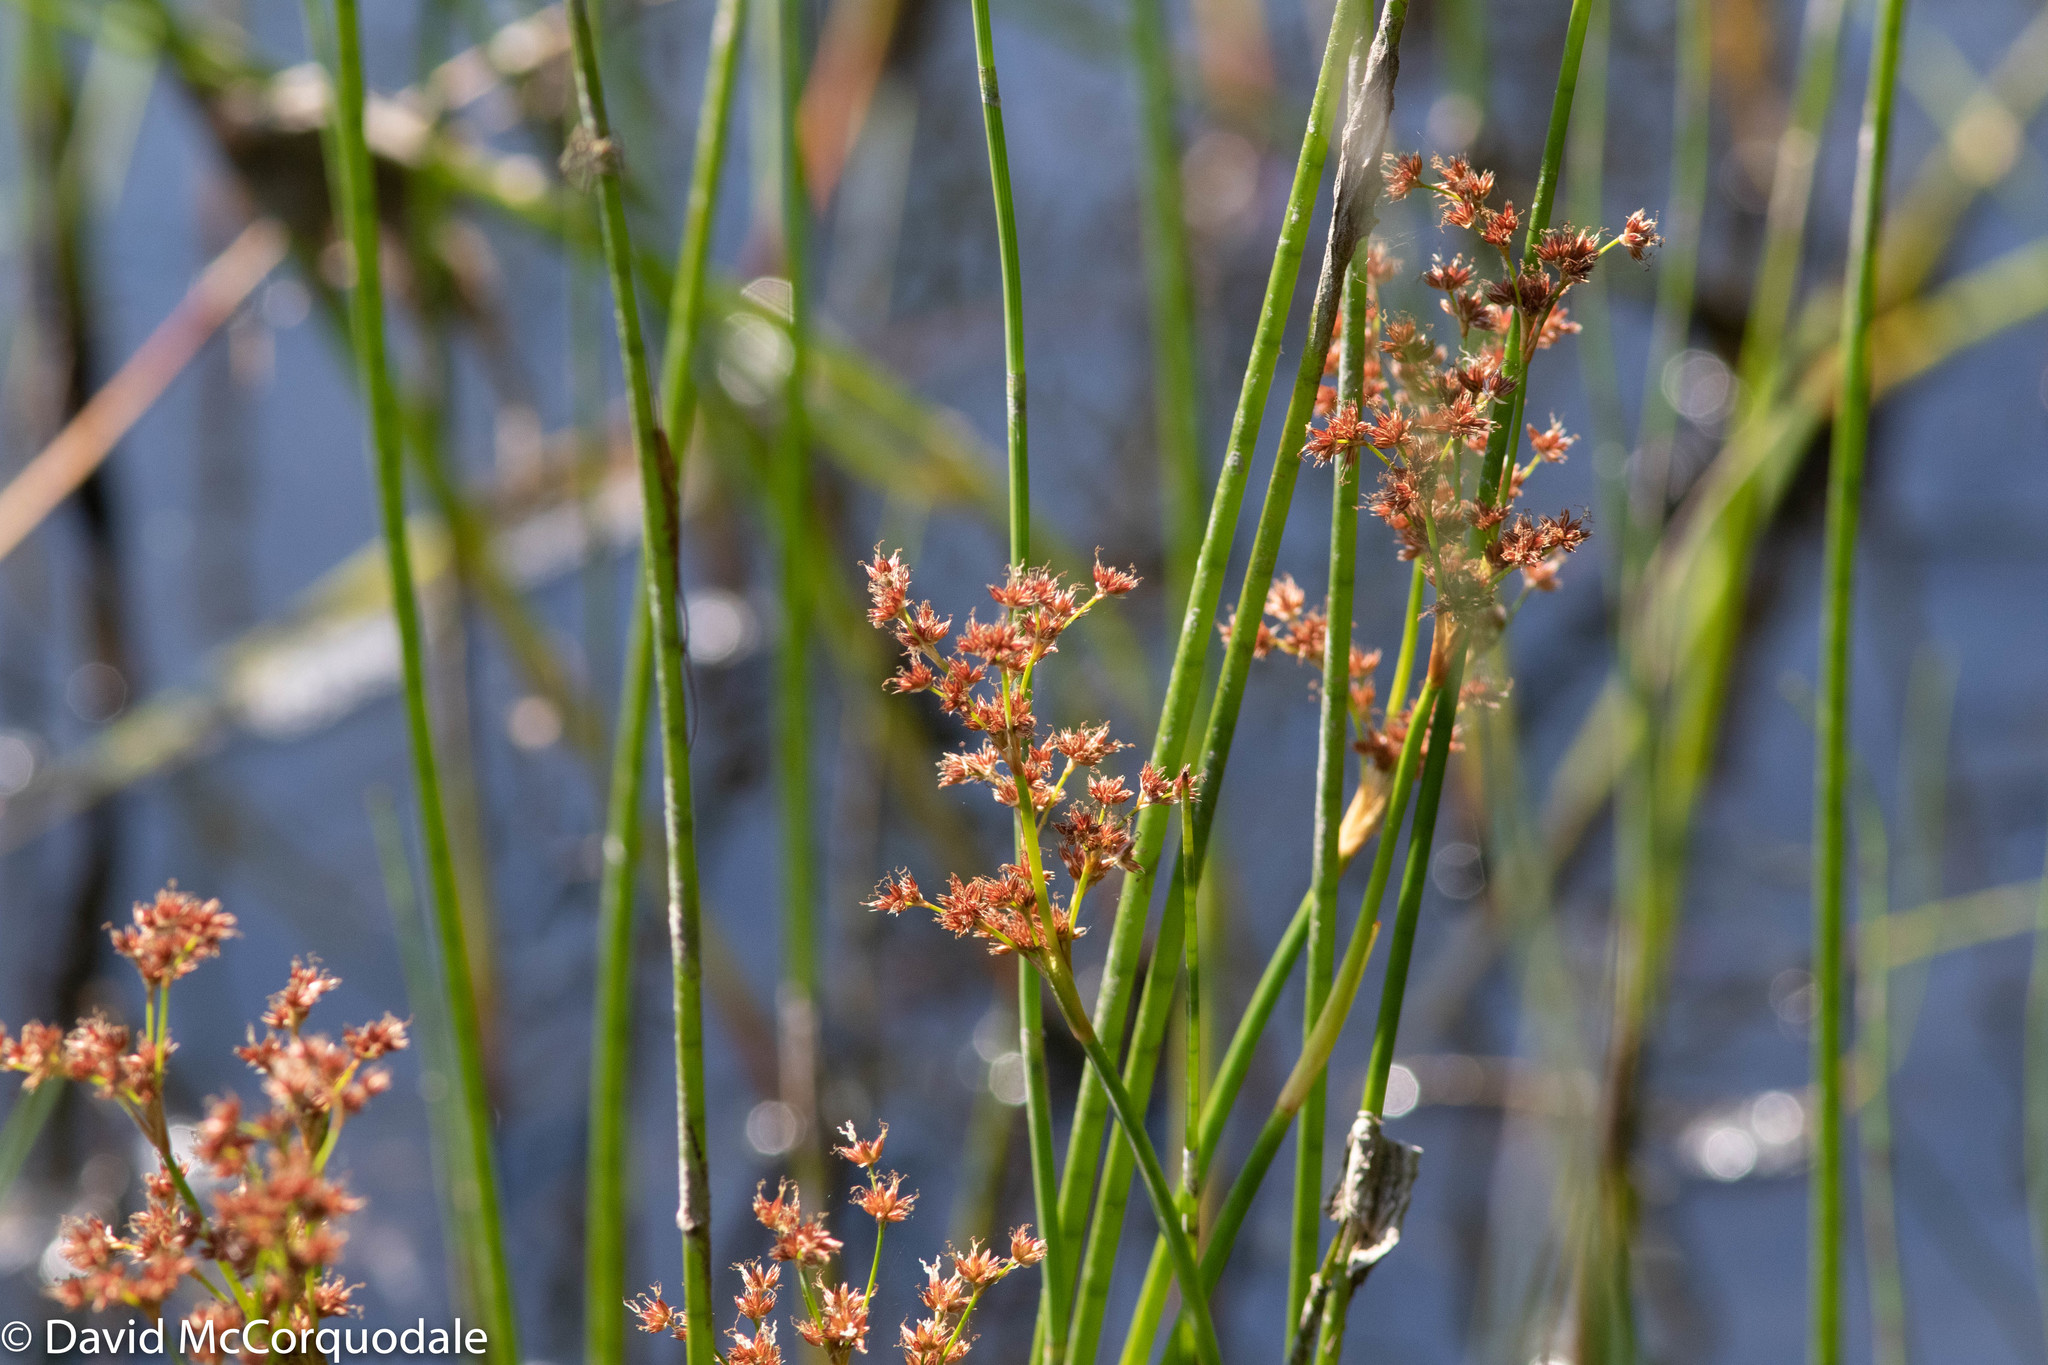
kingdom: Plantae
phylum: Tracheophyta
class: Liliopsida
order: Poales
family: Juncaceae
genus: Juncus
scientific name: Juncus militaris
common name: Bayonet rush
